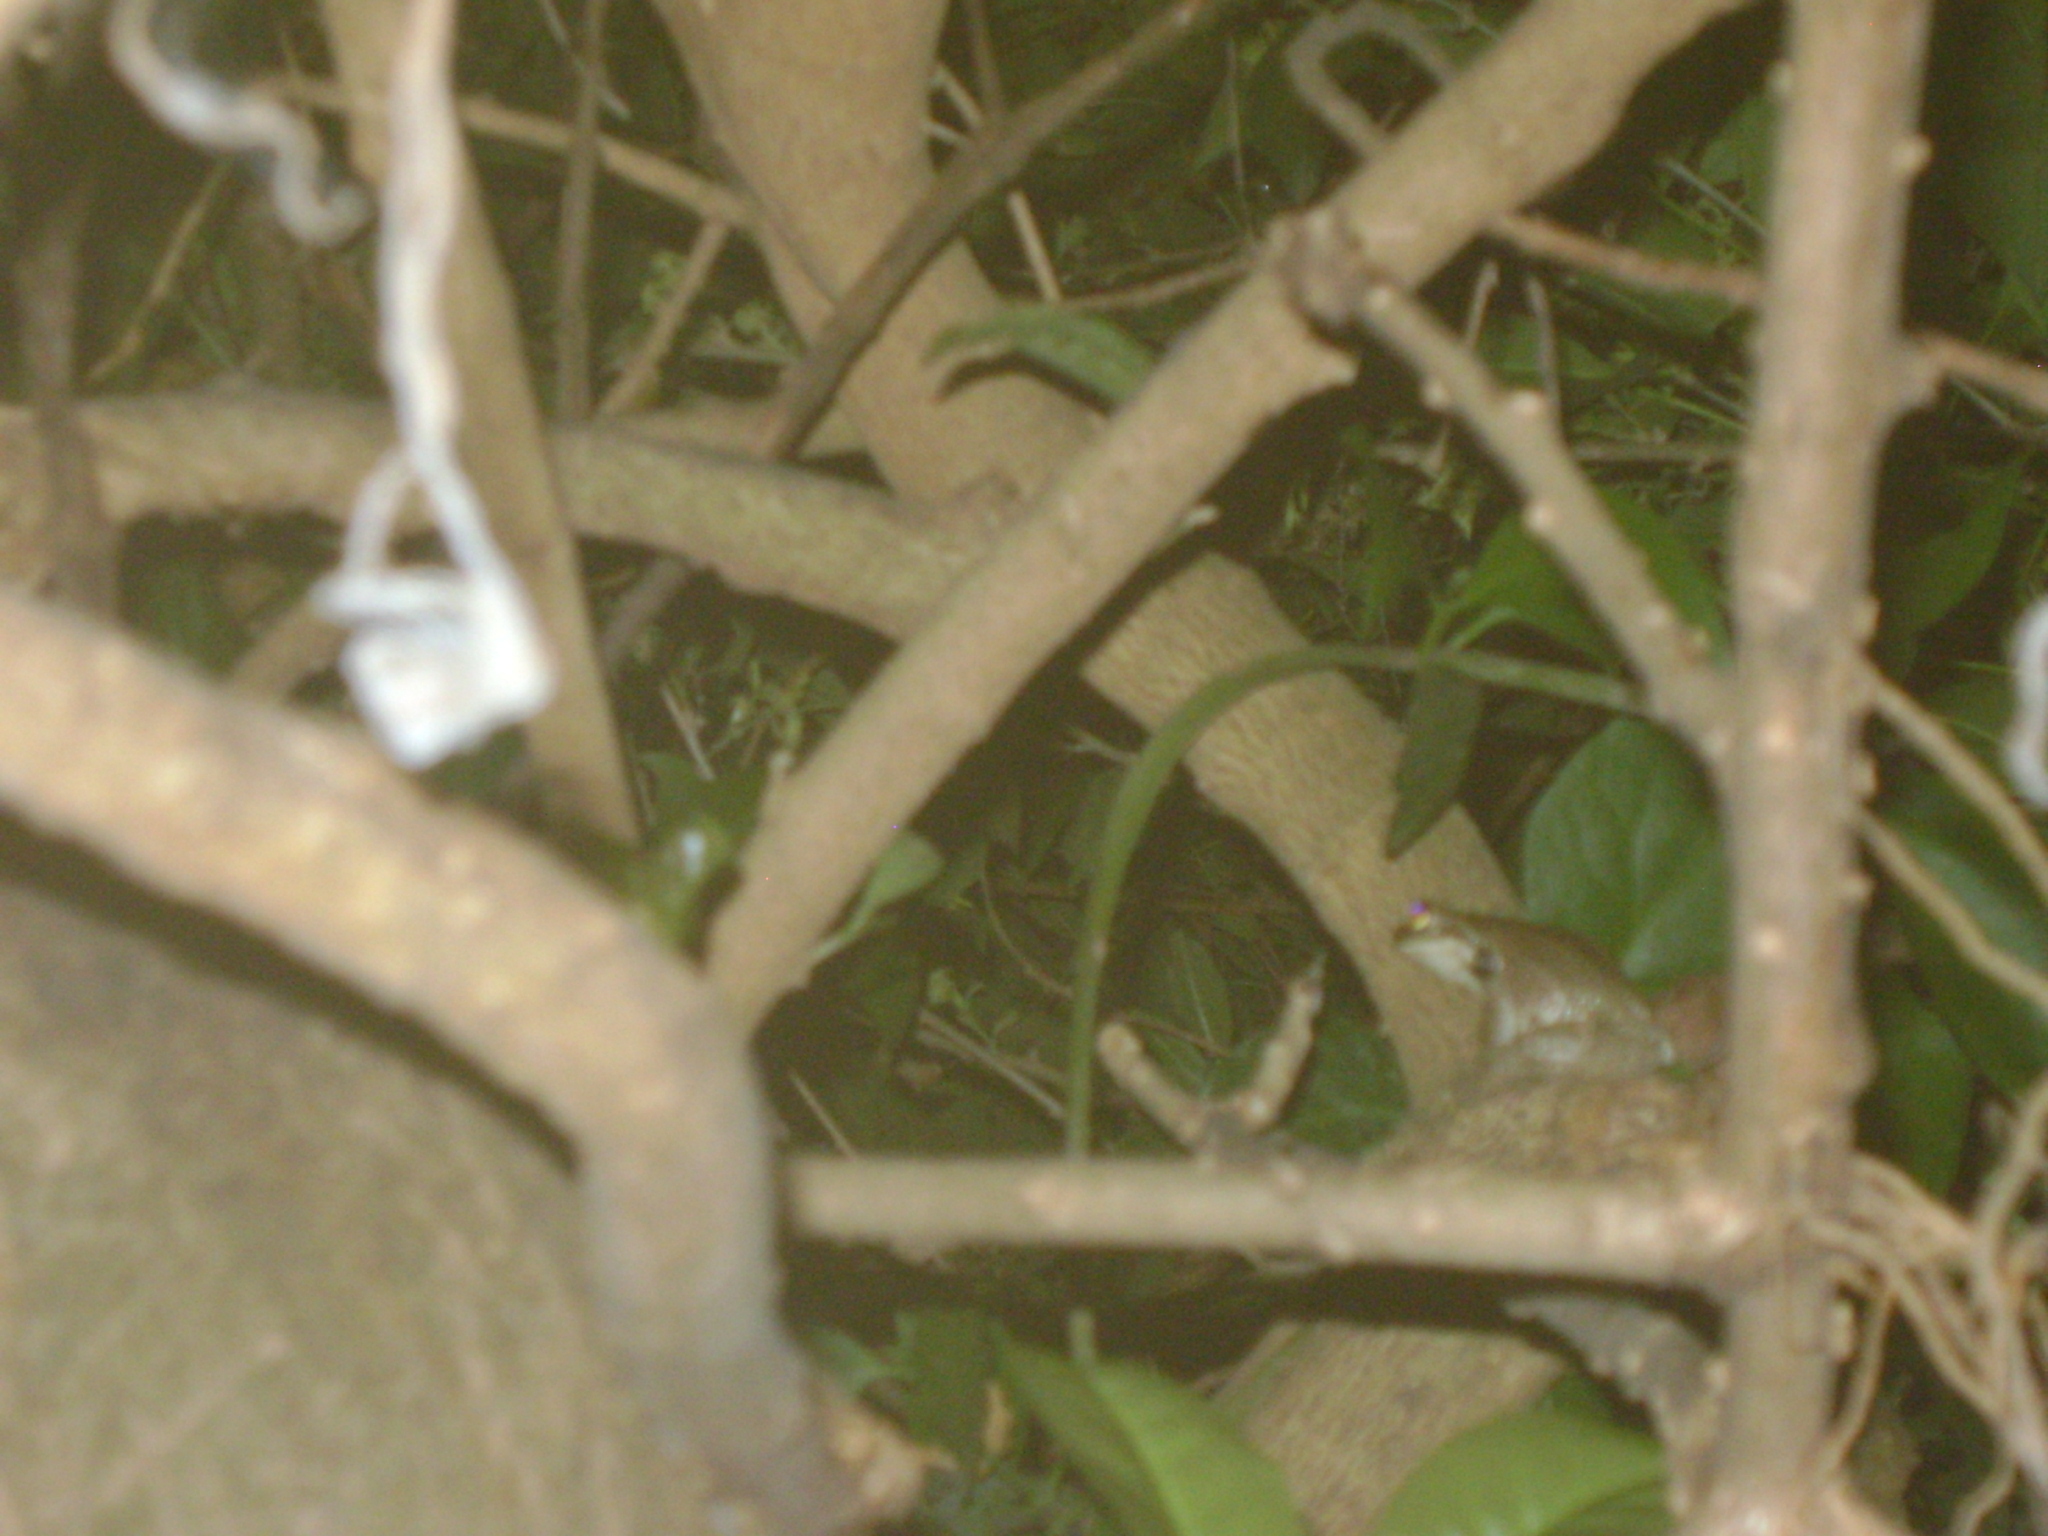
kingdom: Animalia
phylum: Chordata
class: Amphibia
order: Anura
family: Hylidae
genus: Trachycephalus
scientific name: Trachycephalus vermiculatus
